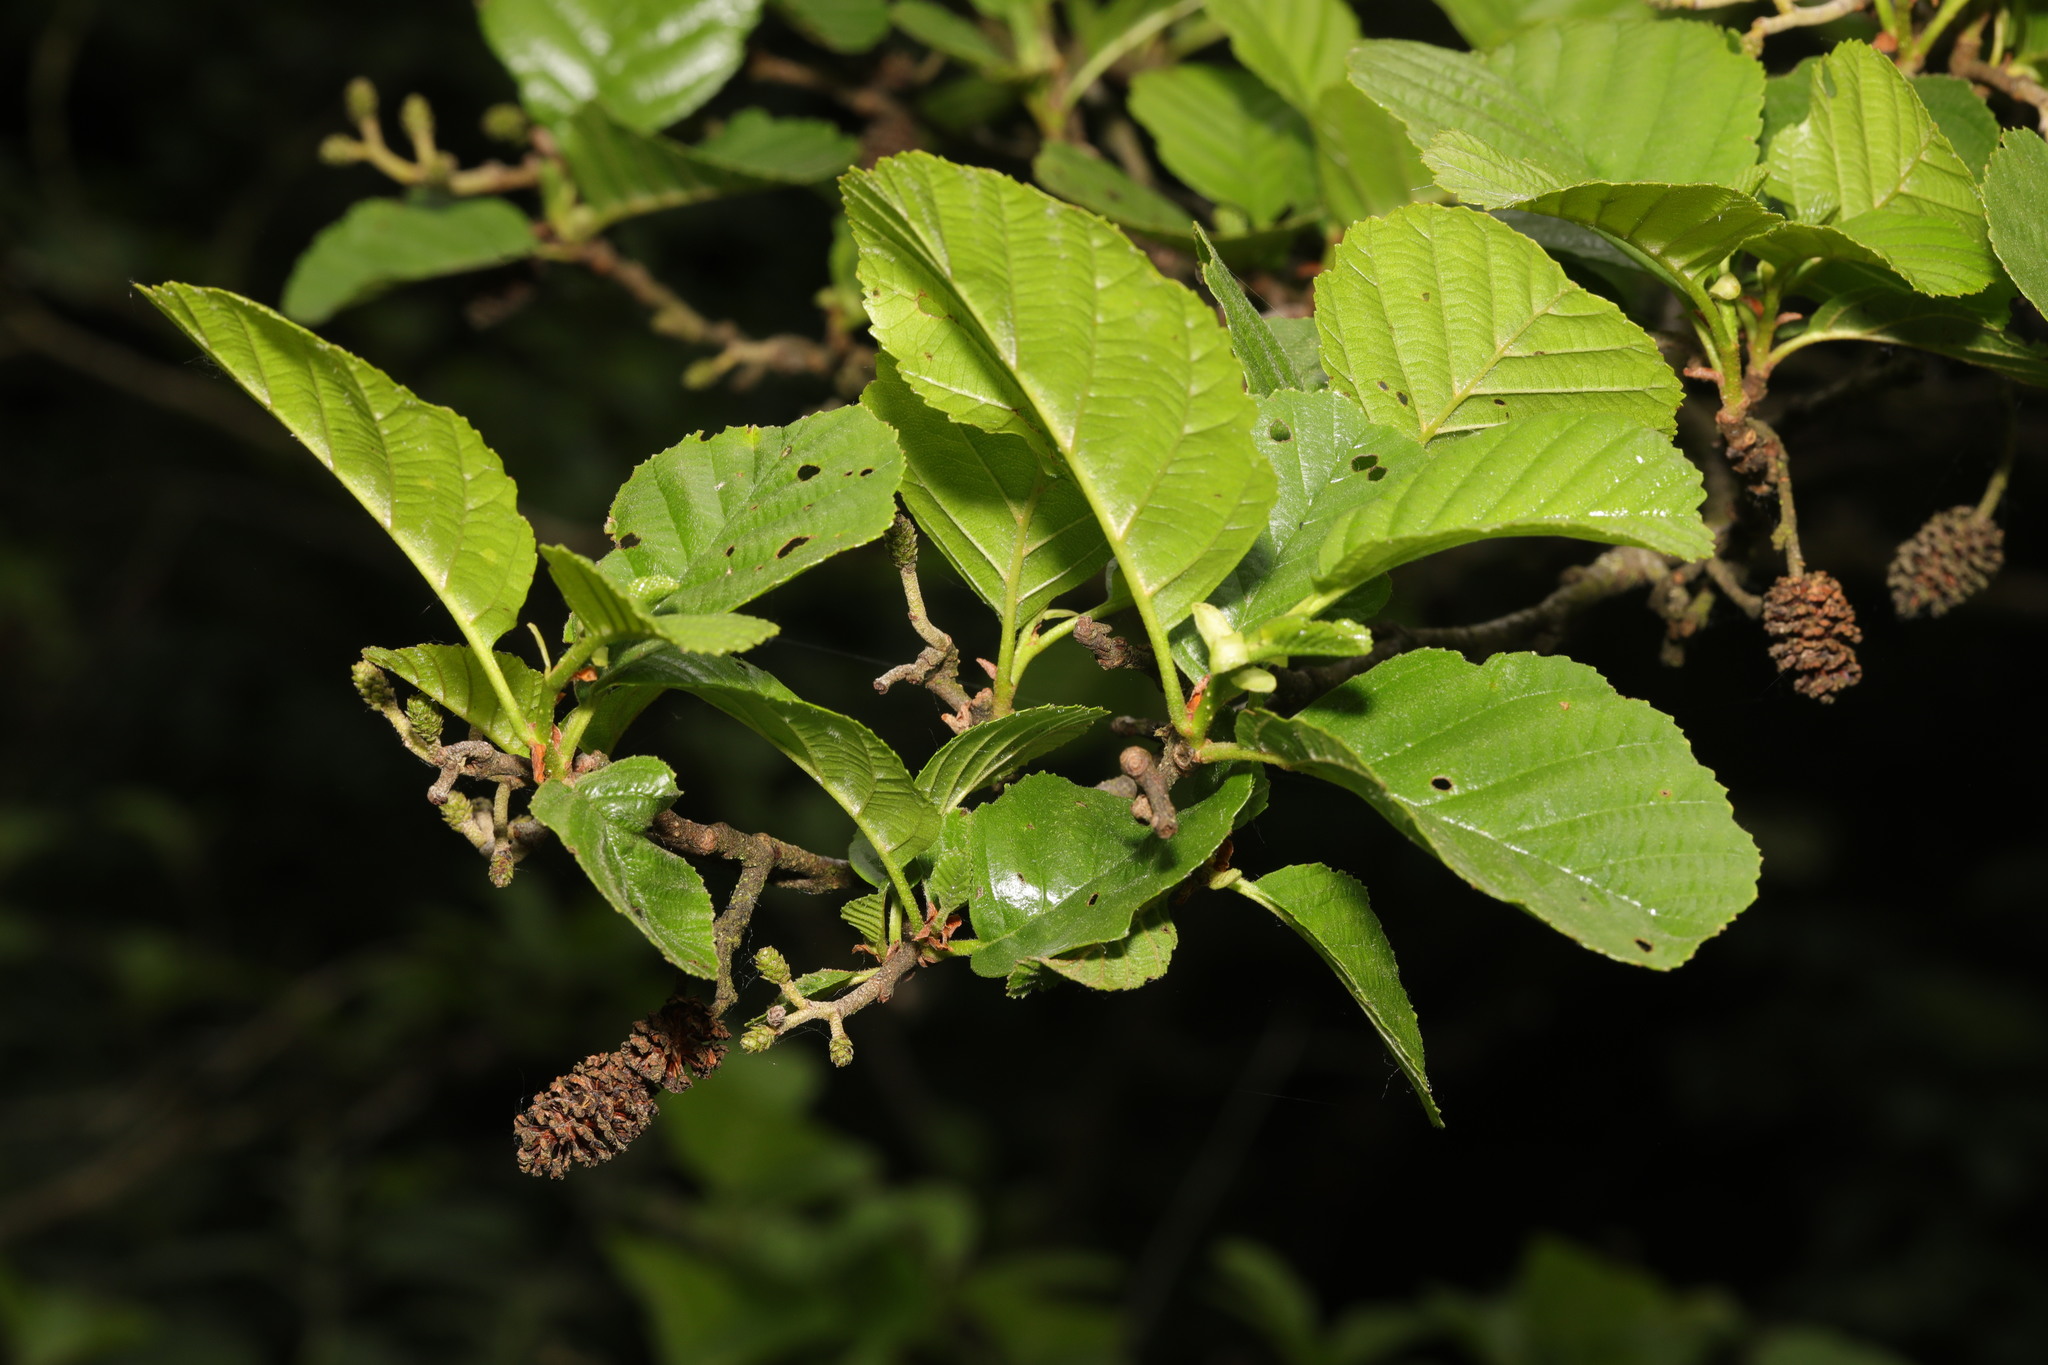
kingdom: Plantae
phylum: Tracheophyta
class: Magnoliopsida
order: Fagales
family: Betulaceae
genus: Alnus
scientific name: Alnus glutinosa
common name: Black alder
